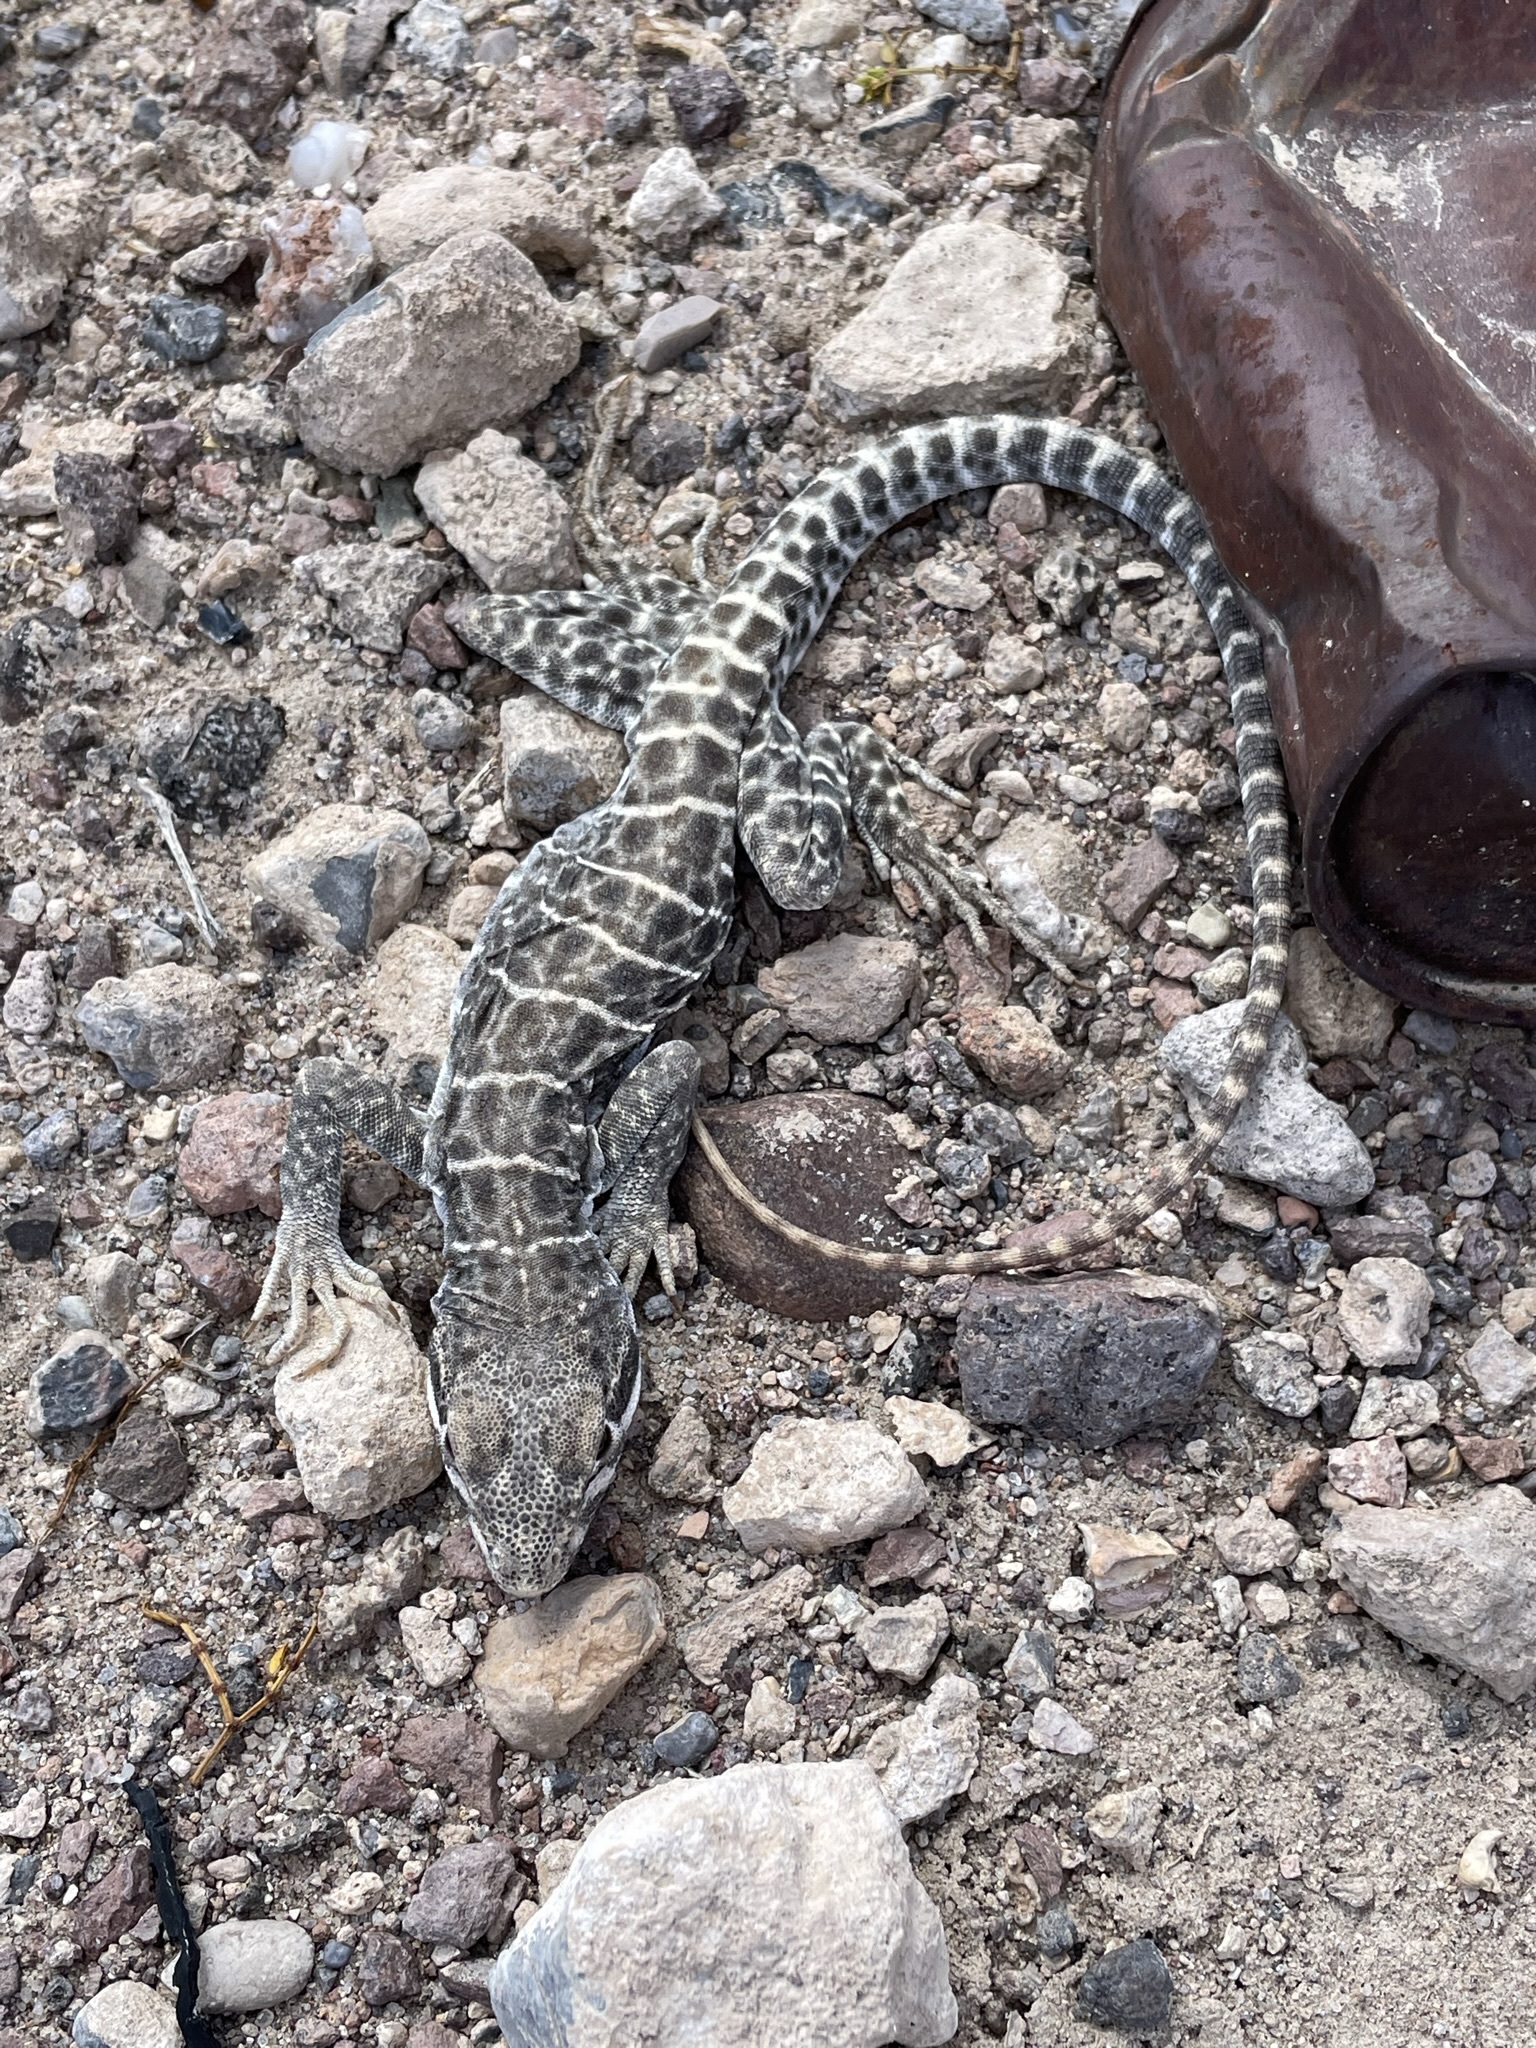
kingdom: Animalia
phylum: Chordata
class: Squamata
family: Crotaphytidae
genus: Gambelia
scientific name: Gambelia wislizenii
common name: Longnose leopard lizard
